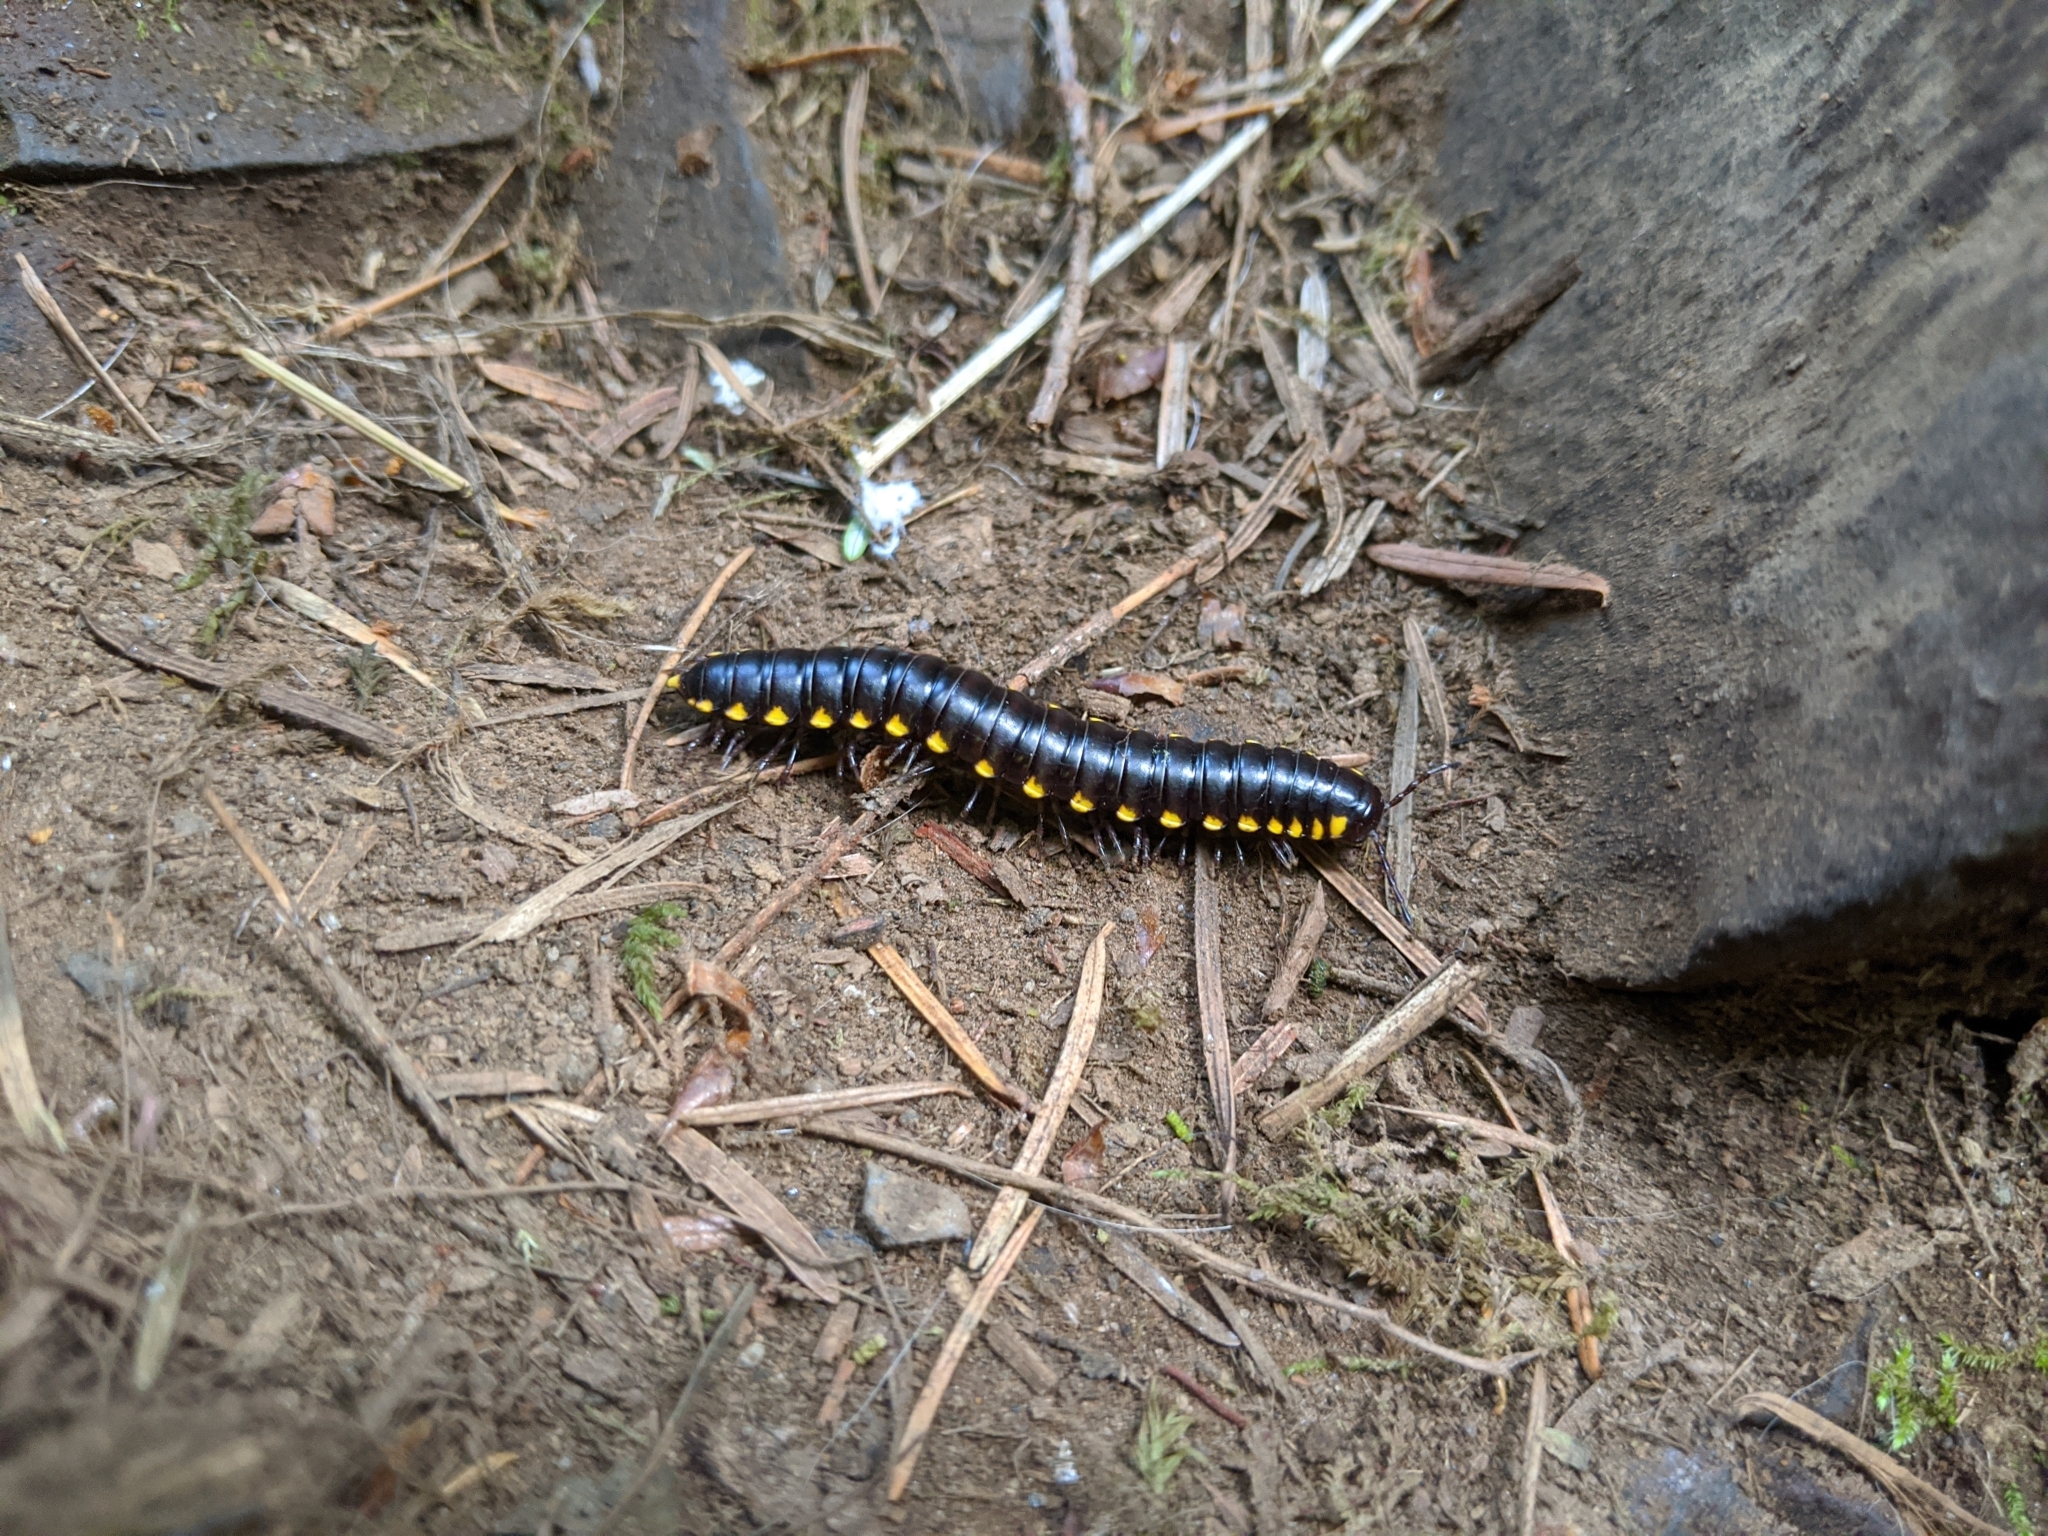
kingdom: Animalia
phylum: Arthropoda
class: Diplopoda
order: Polydesmida
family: Xystodesmidae
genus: Harpaphe
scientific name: Harpaphe haydeniana
